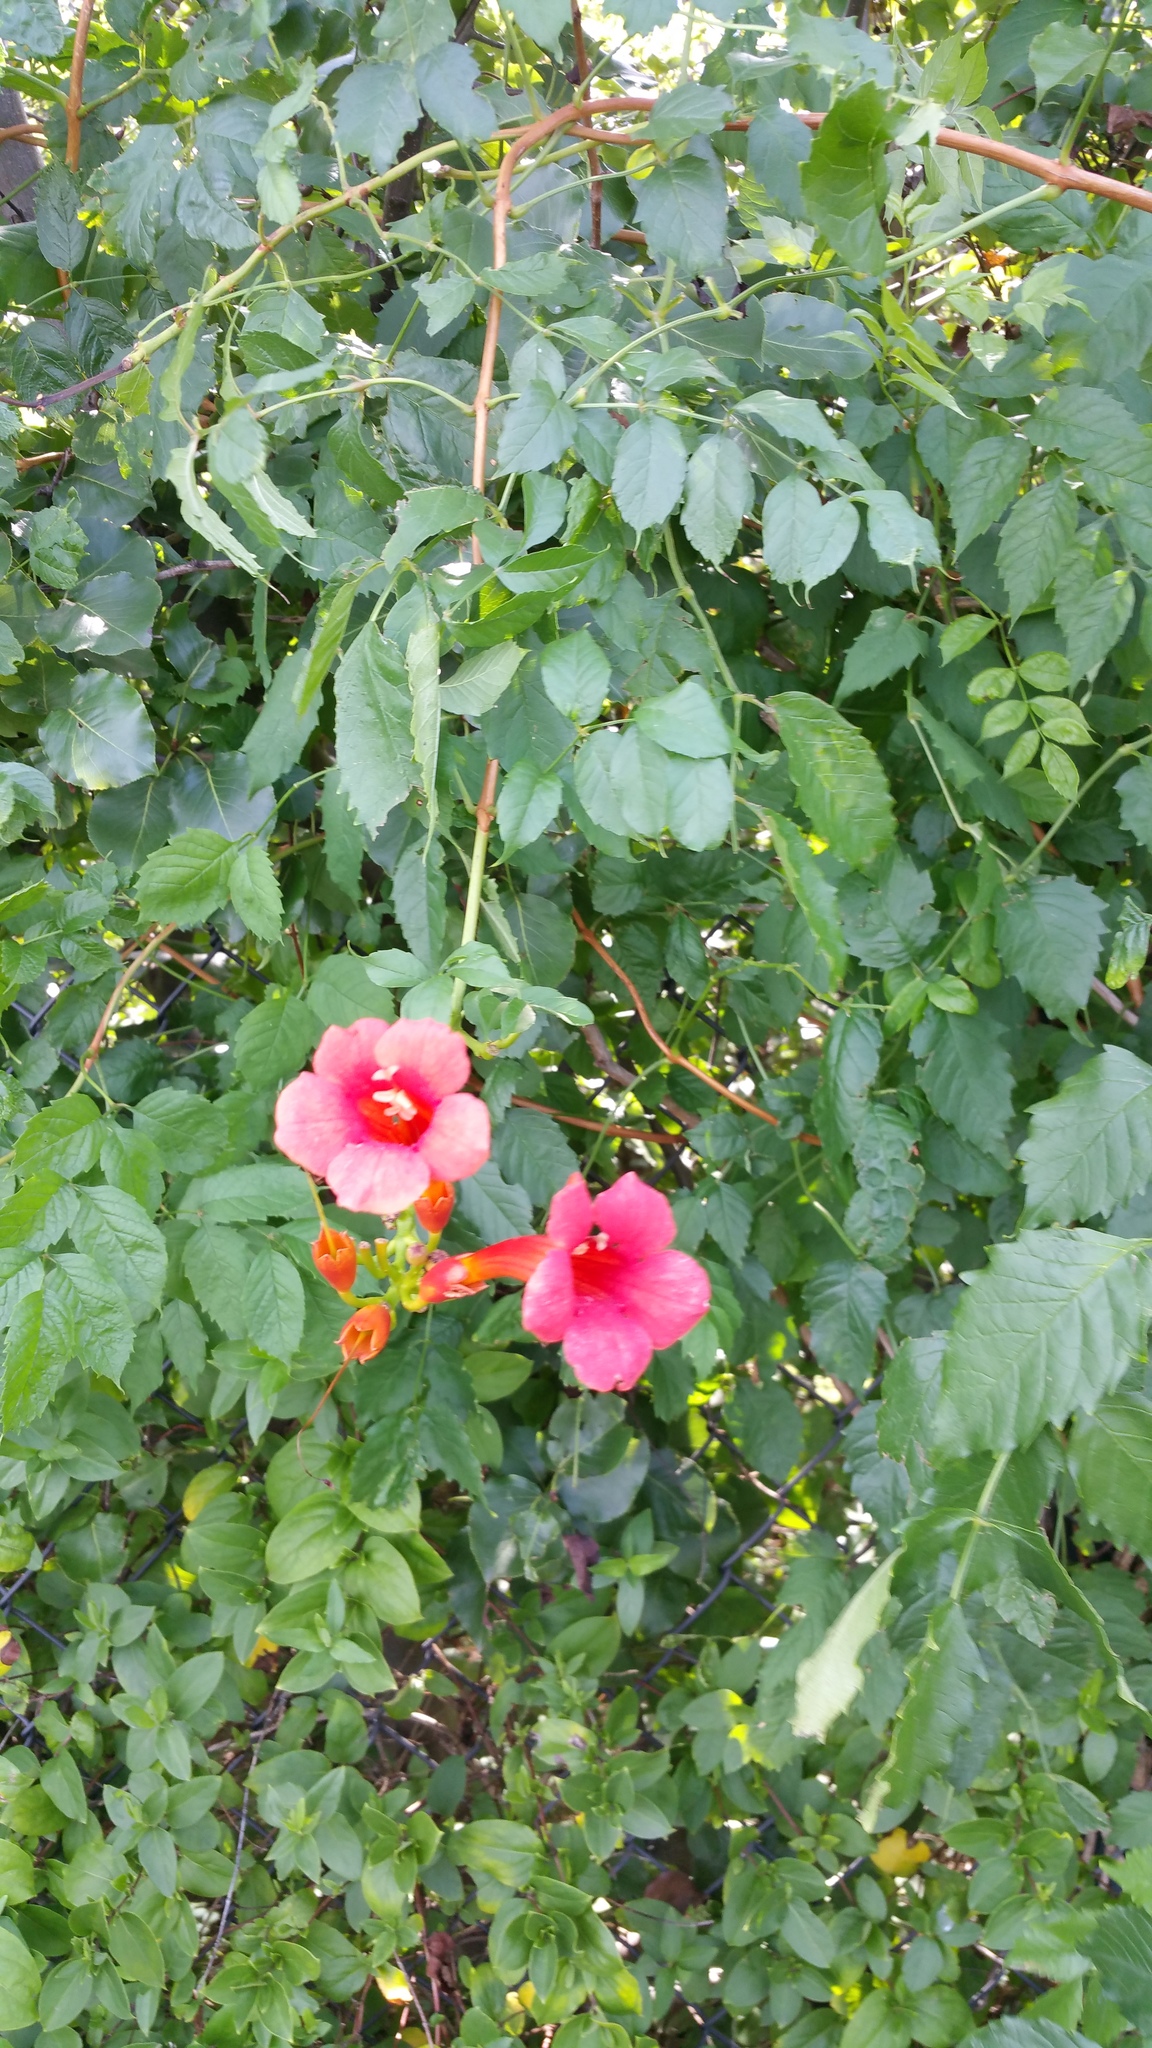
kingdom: Plantae
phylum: Tracheophyta
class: Magnoliopsida
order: Lamiales
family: Bignoniaceae
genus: Campsis
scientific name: Campsis radicans
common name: Trumpet-creeper
